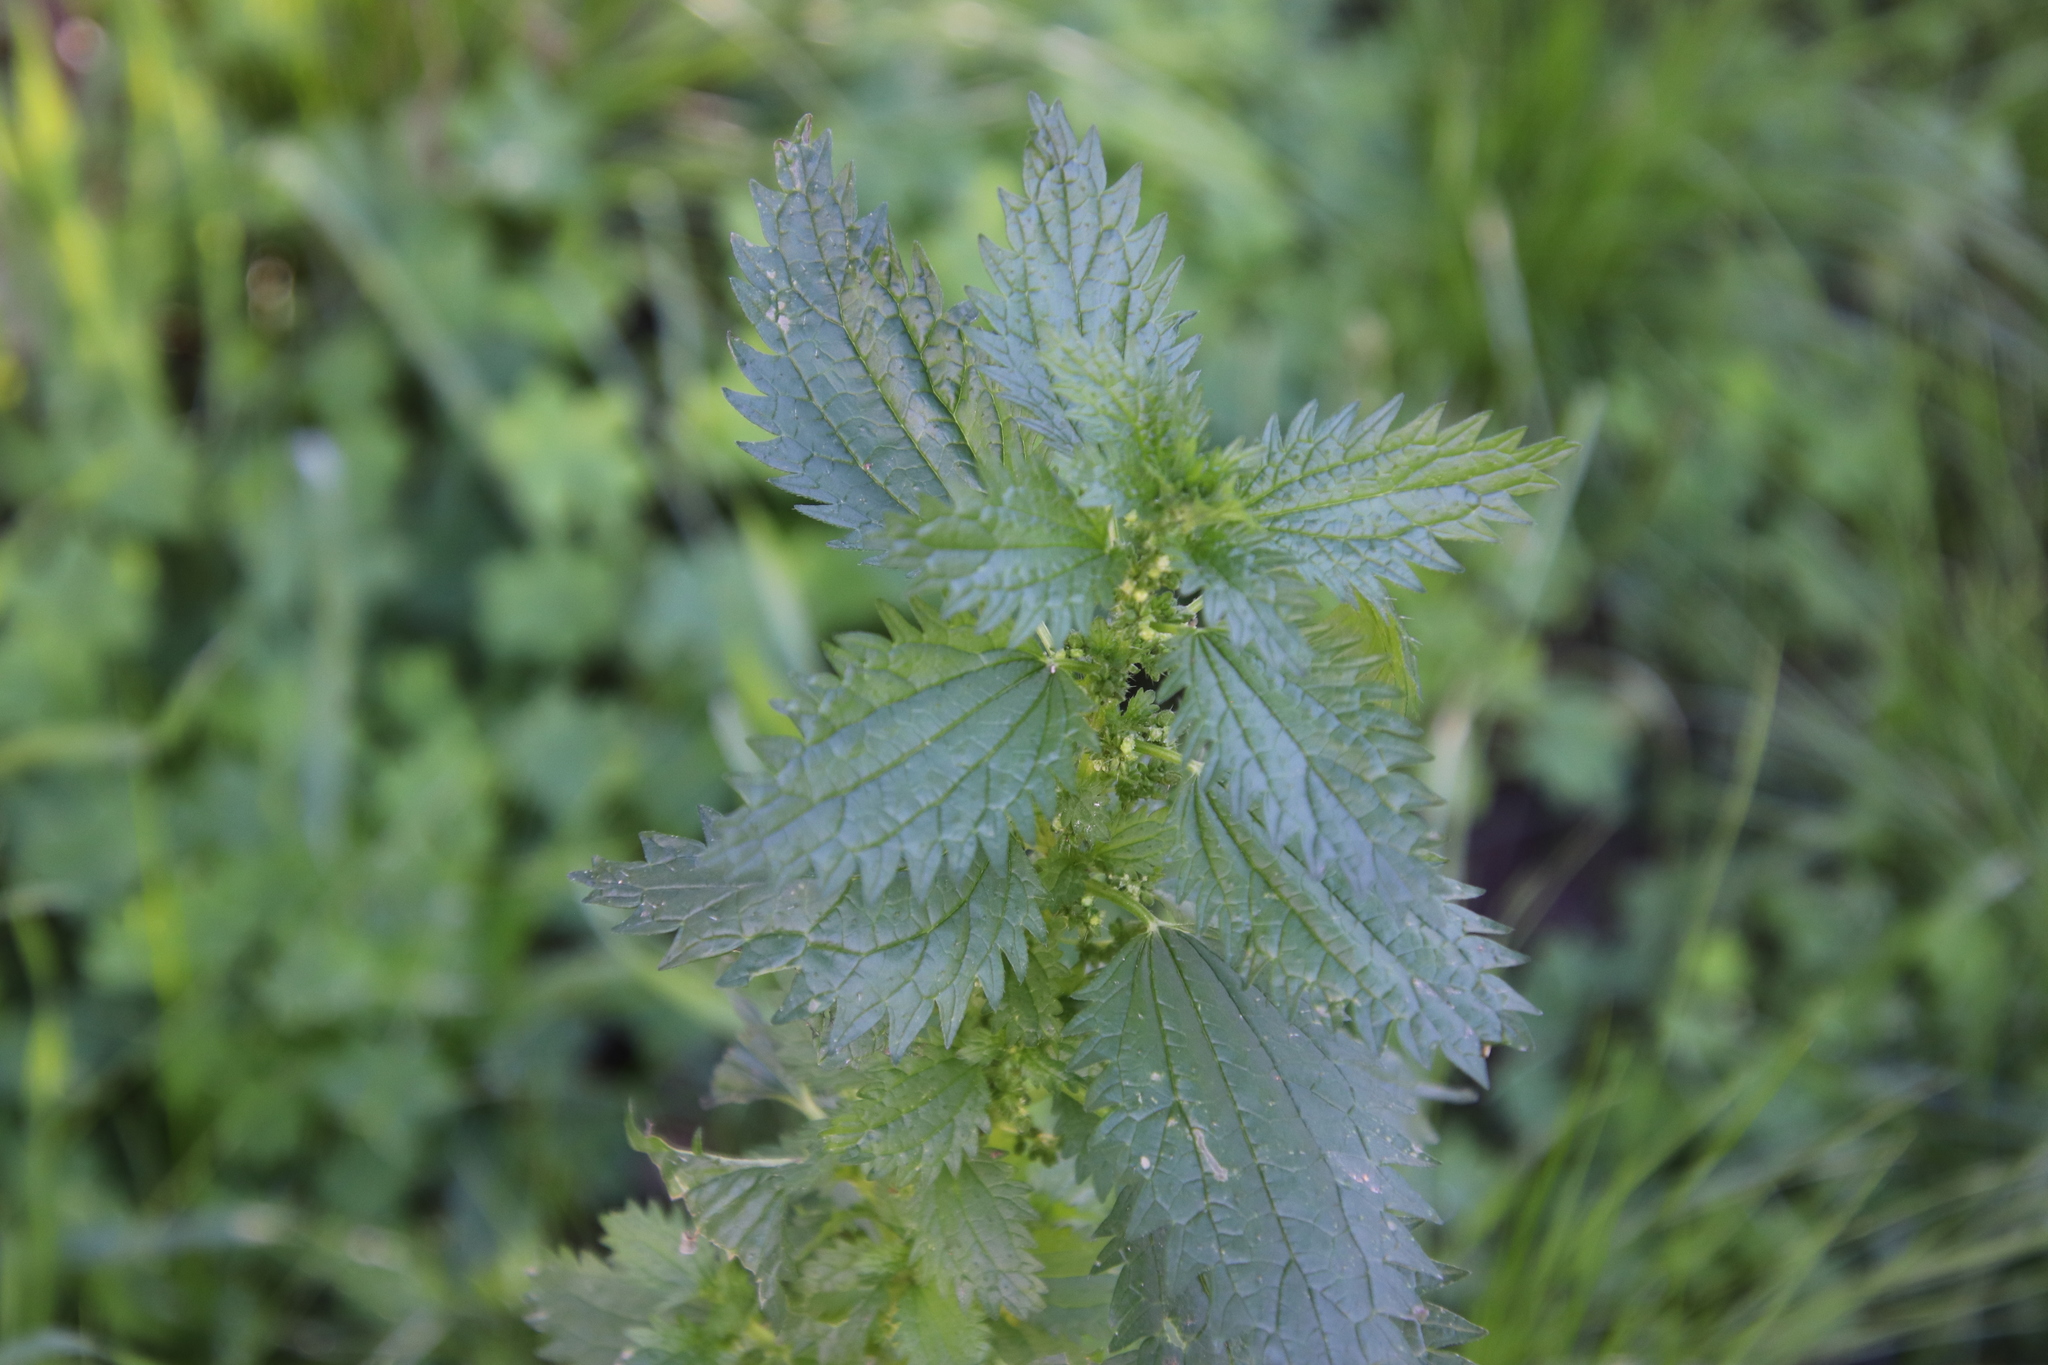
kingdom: Plantae
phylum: Tracheophyta
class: Magnoliopsida
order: Rosales
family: Urticaceae
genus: Urtica
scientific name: Urtica urens
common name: Dwarf nettle
